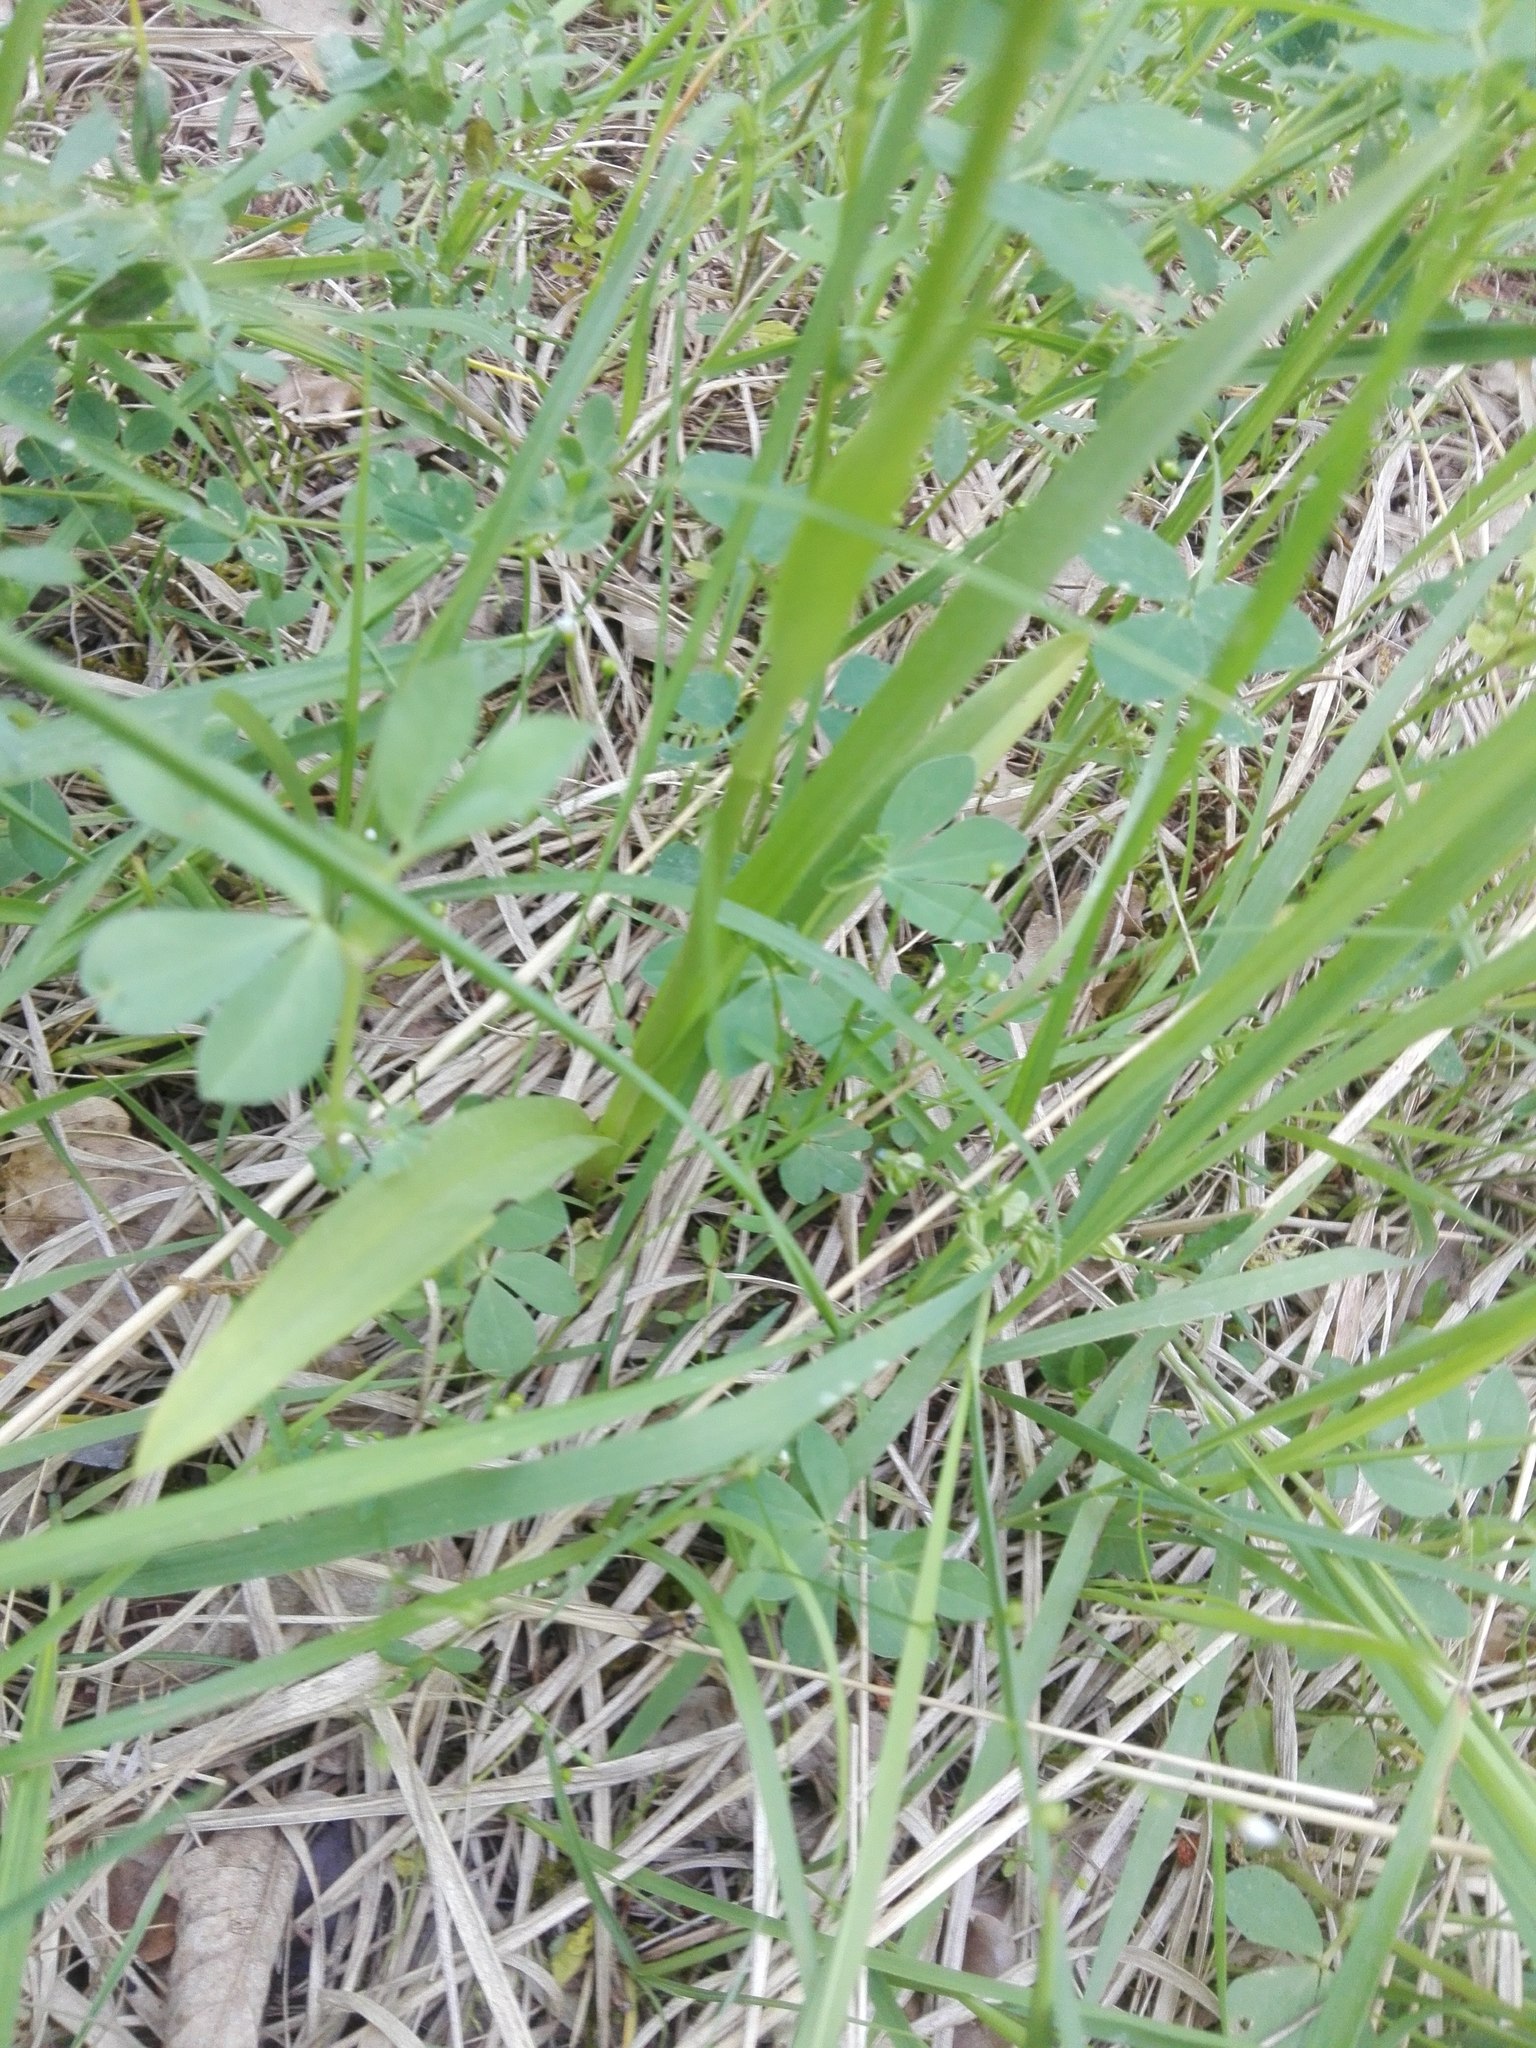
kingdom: Plantae
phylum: Tracheophyta
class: Liliopsida
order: Asparagales
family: Orchidaceae
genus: Gymnadenia
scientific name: Gymnadenia conopsea
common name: Fragrant orchid
